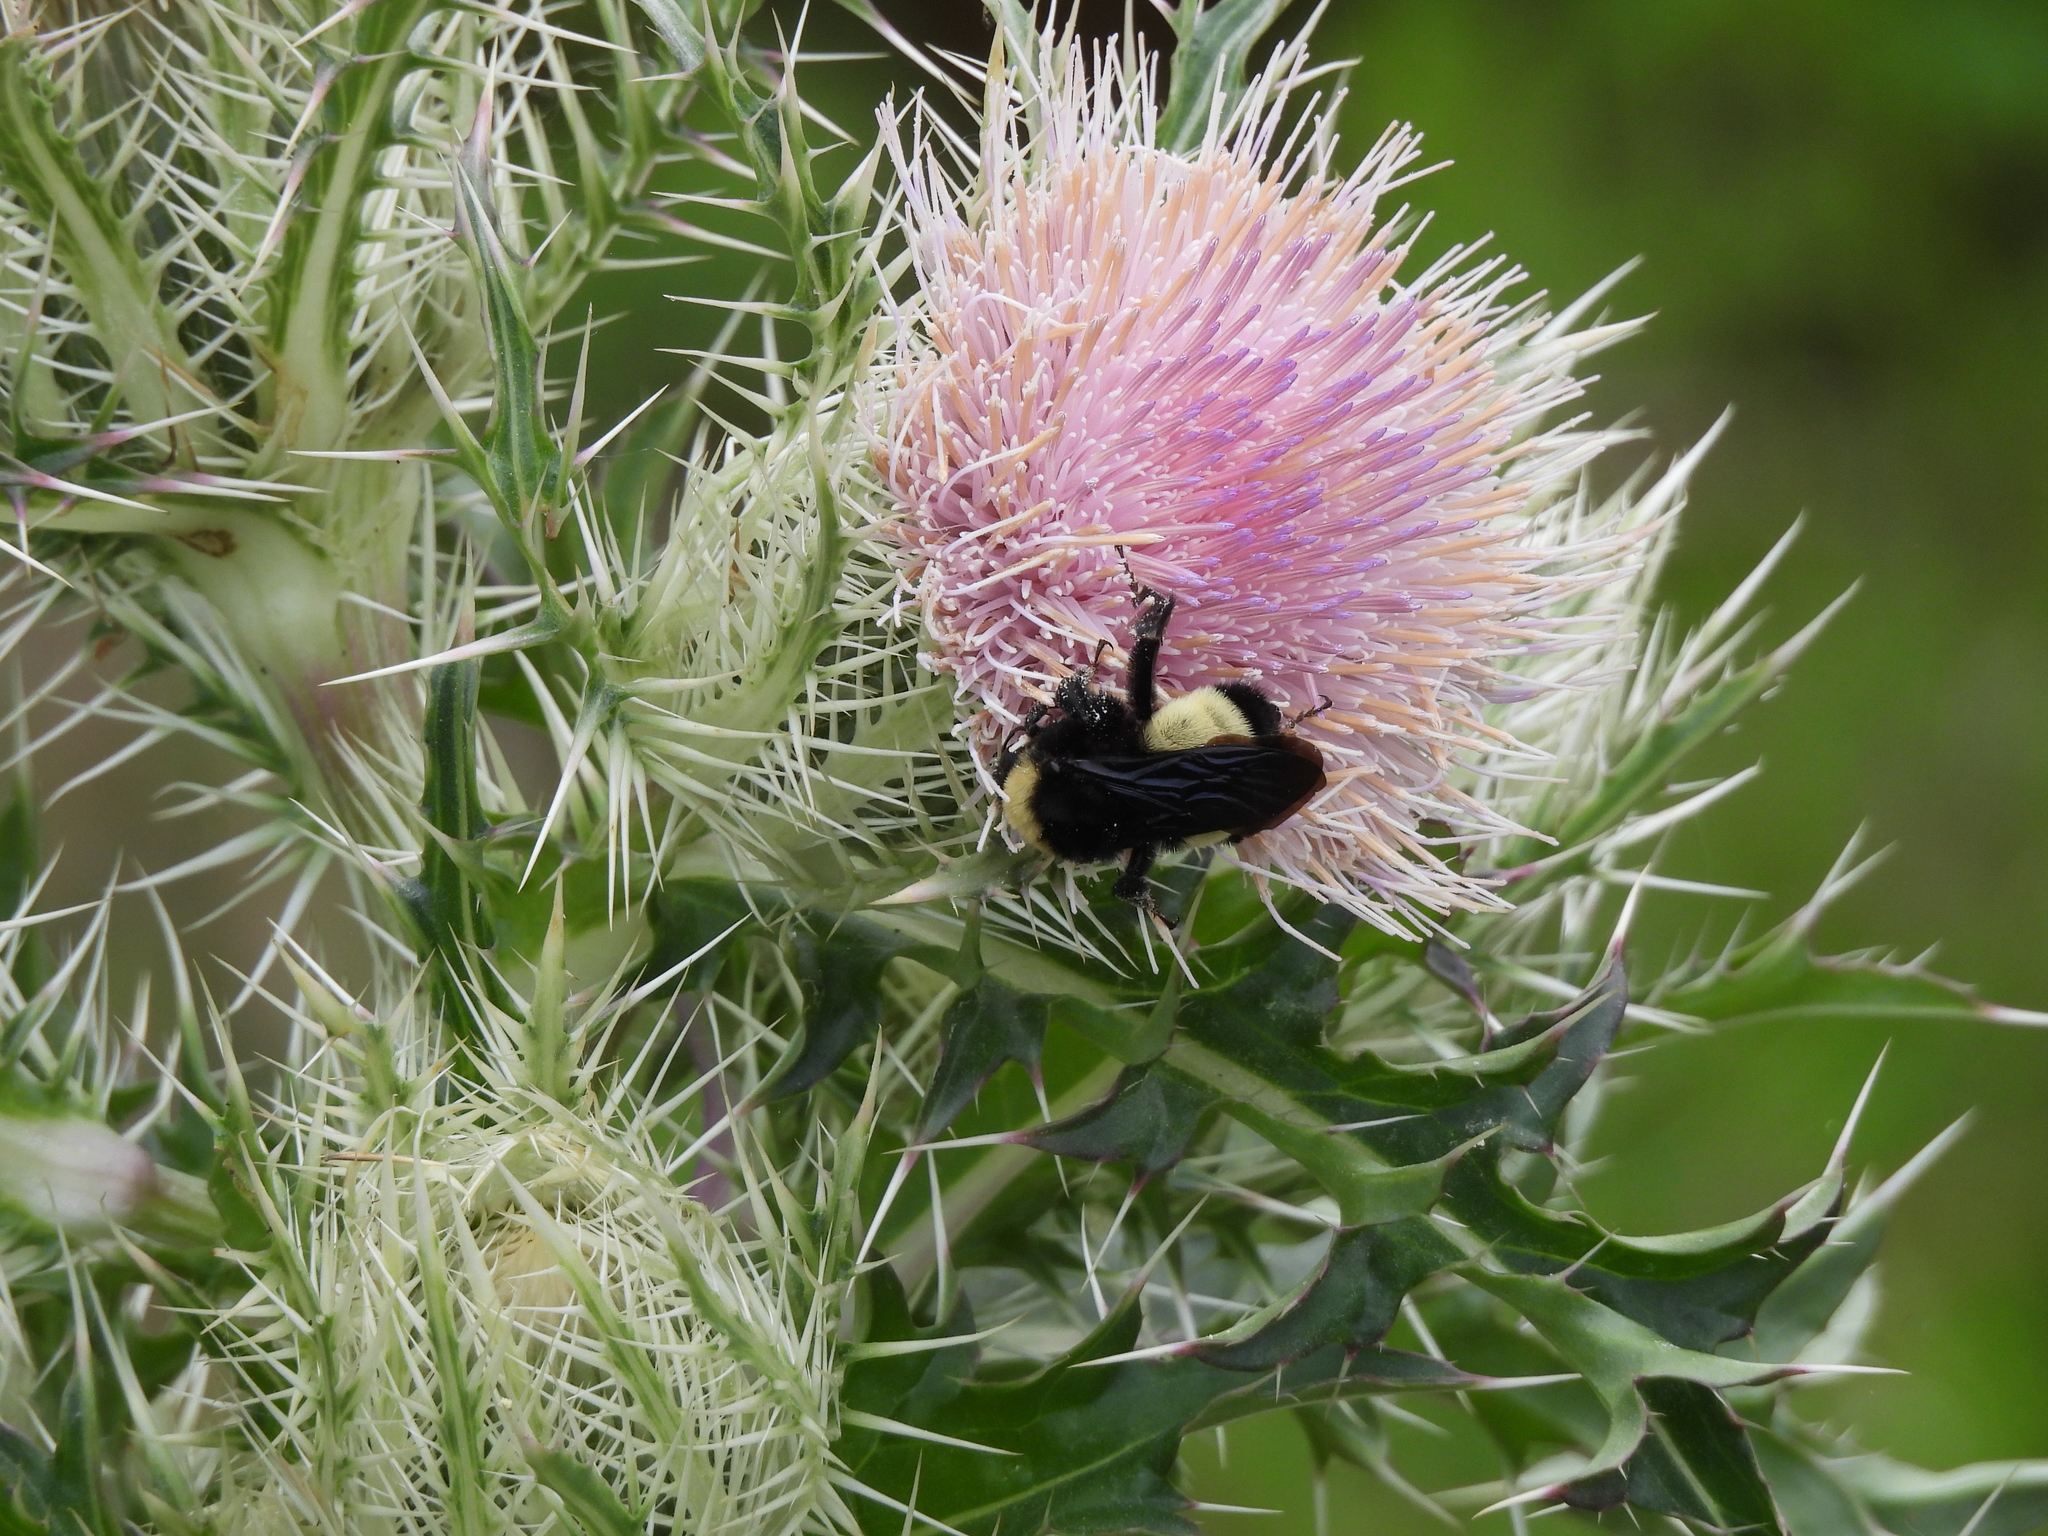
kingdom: Animalia
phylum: Arthropoda
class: Insecta
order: Hymenoptera
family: Apidae
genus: Bombus
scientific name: Bombus pensylvanicus
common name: Bumble bee
